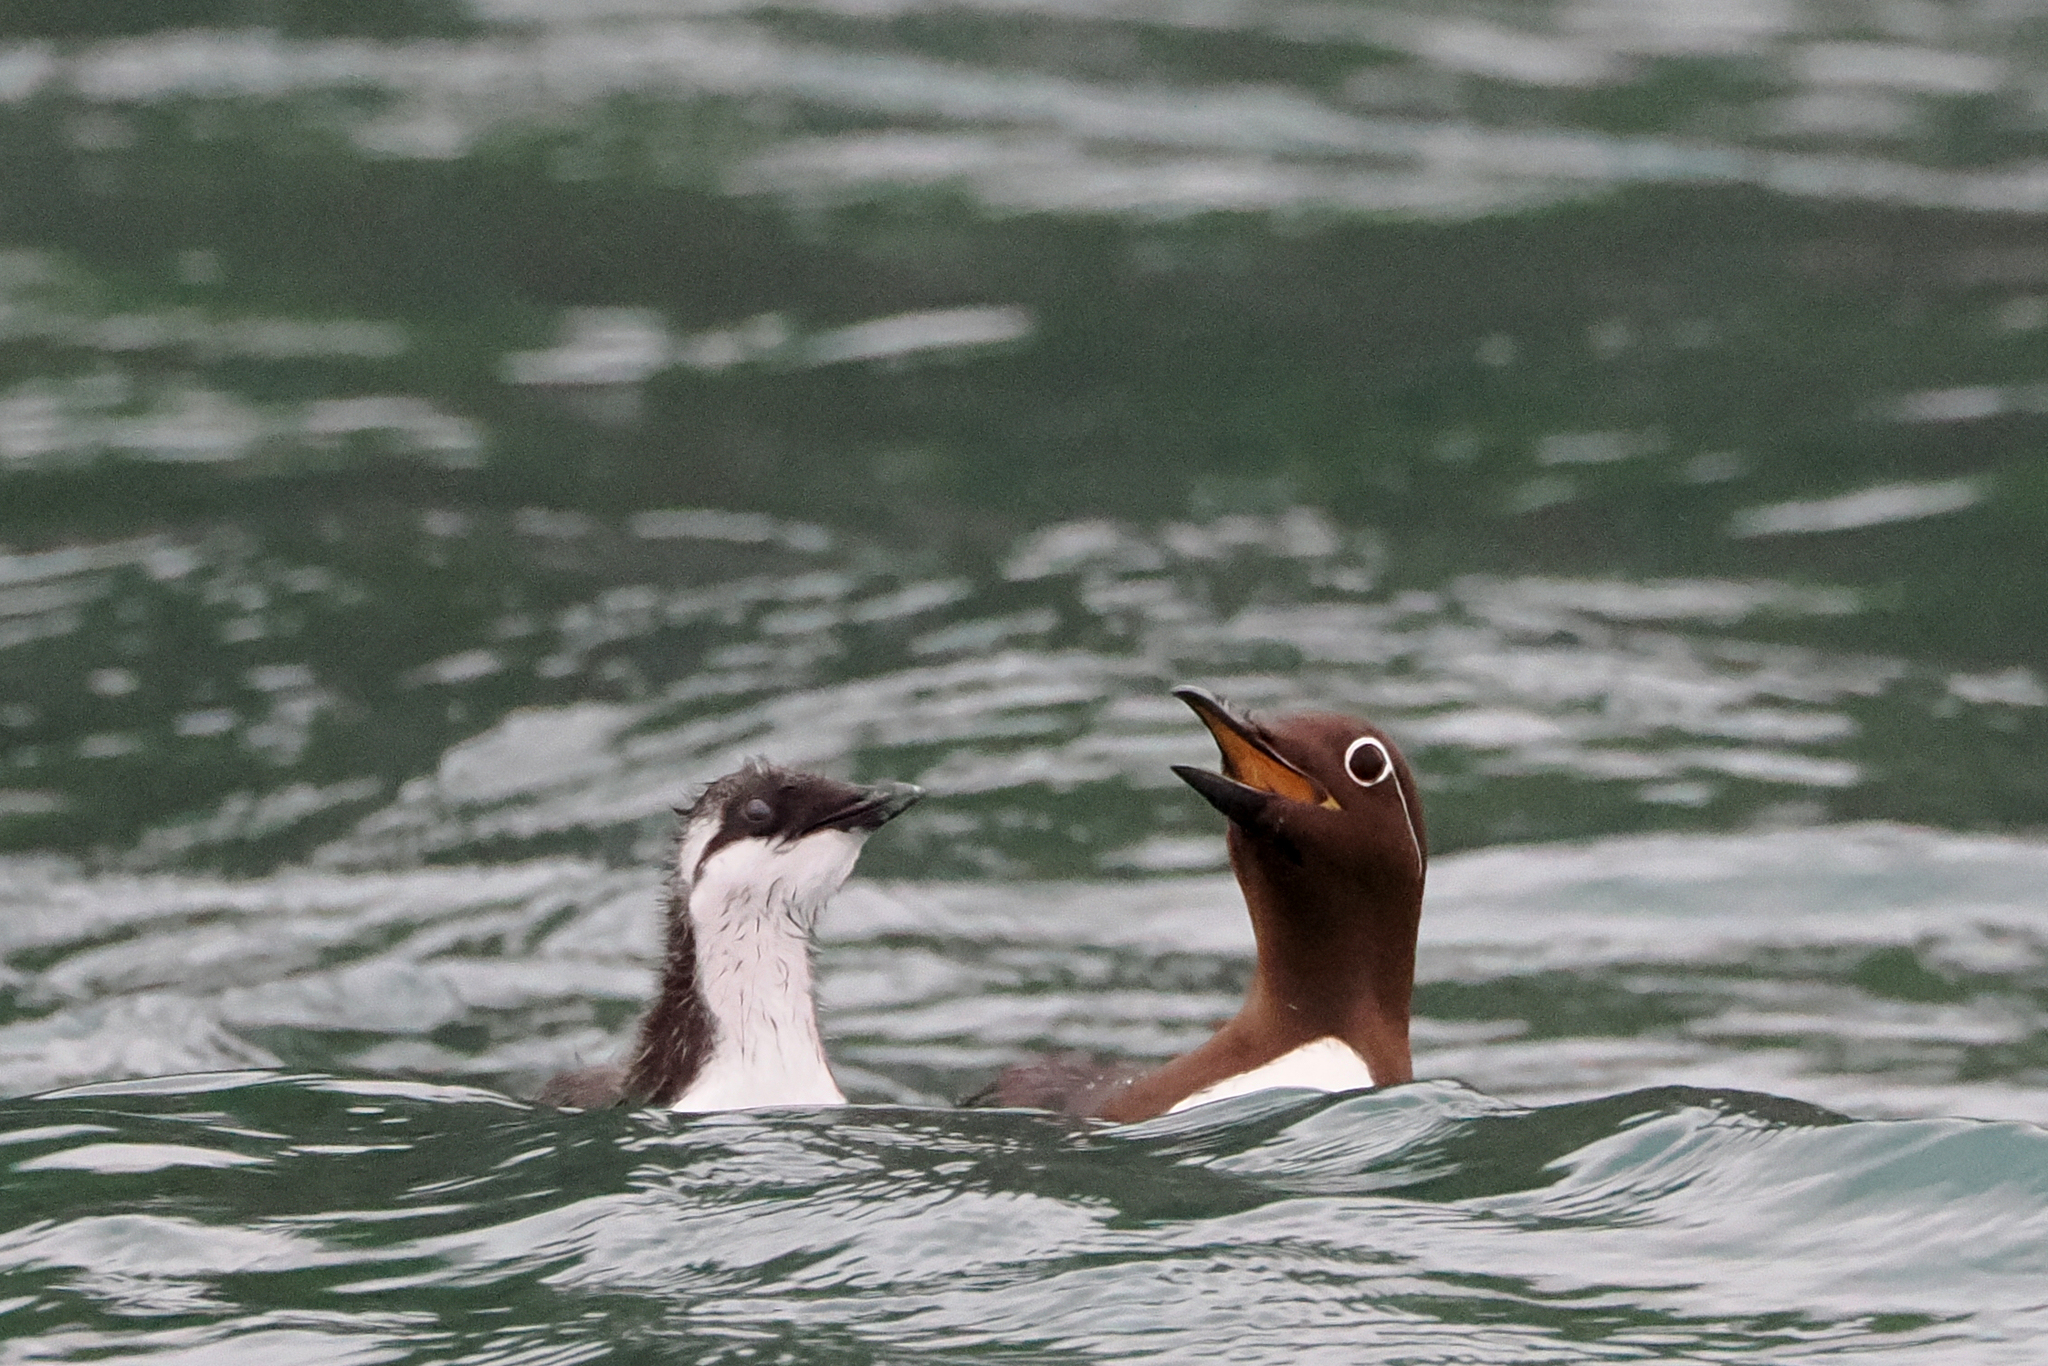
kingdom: Animalia
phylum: Chordata
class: Aves
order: Charadriiformes
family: Alcidae
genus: Uria
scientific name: Uria aalge
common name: Common murre
